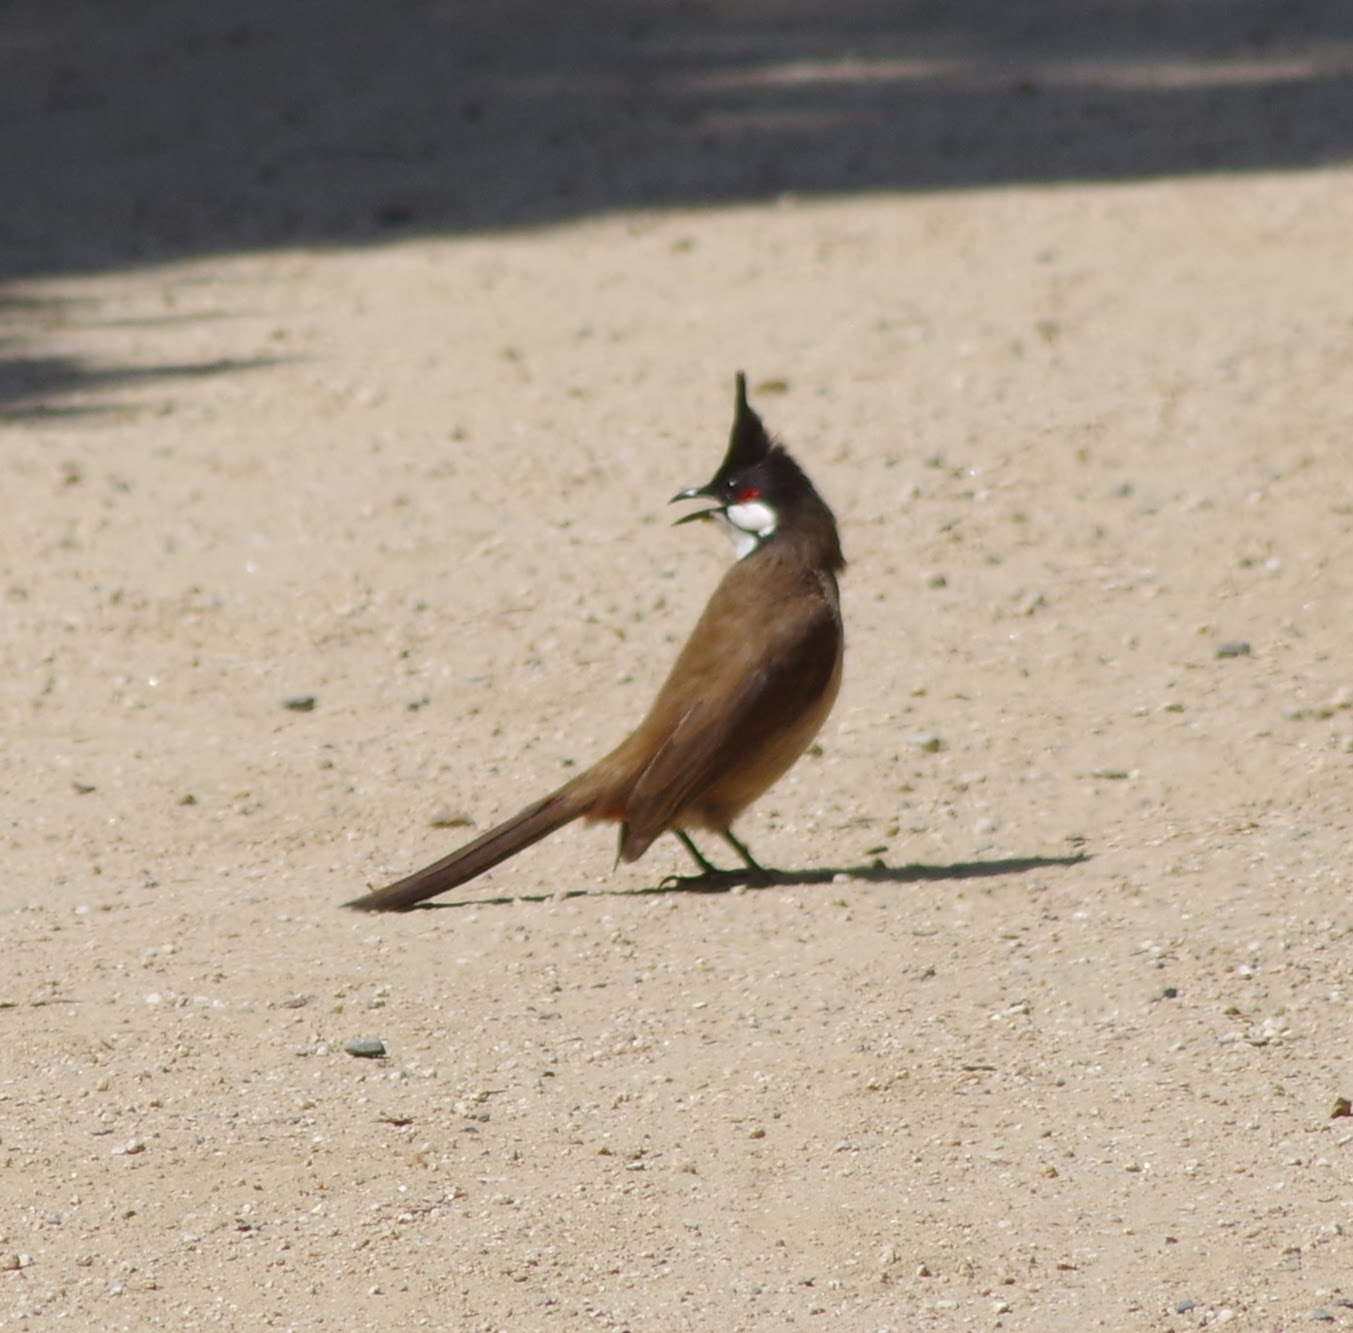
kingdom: Animalia
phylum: Chordata
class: Aves
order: Passeriformes
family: Pycnonotidae
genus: Pycnonotus
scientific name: Pycnonotus jocosus
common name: Red-whiskered bulbul
